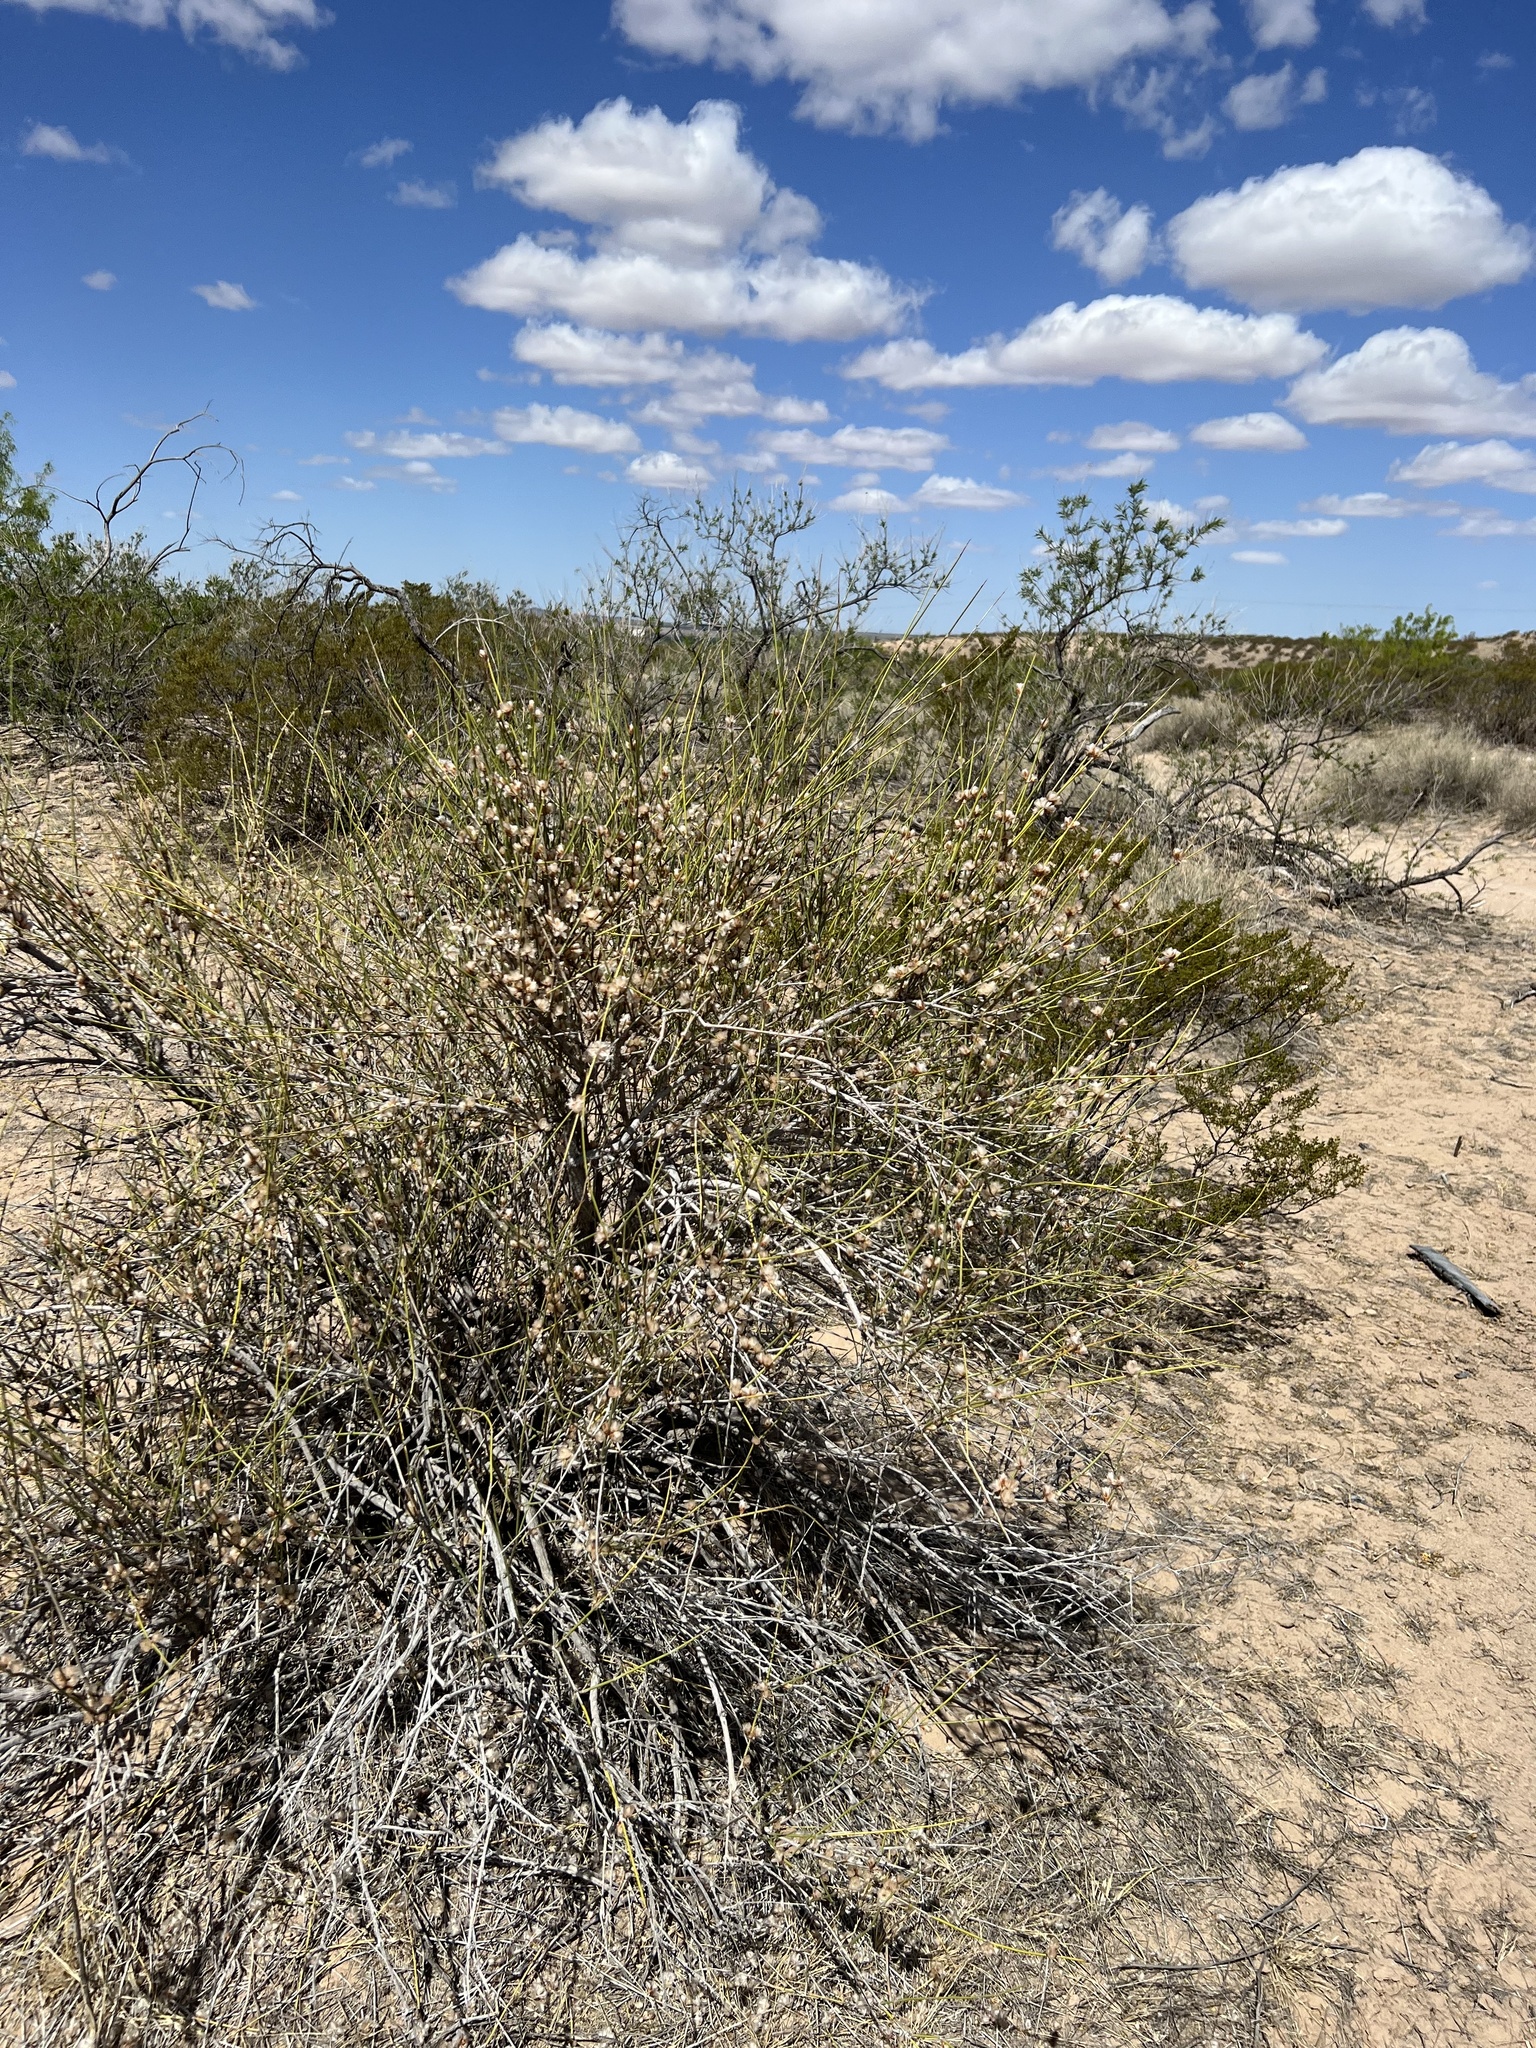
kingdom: Plantae
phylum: Tracheophyta
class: Gnetopsida
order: Ephedrales
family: Ephedraceae
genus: Ephedra
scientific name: Ephedra trifurca
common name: Mexican-tea
